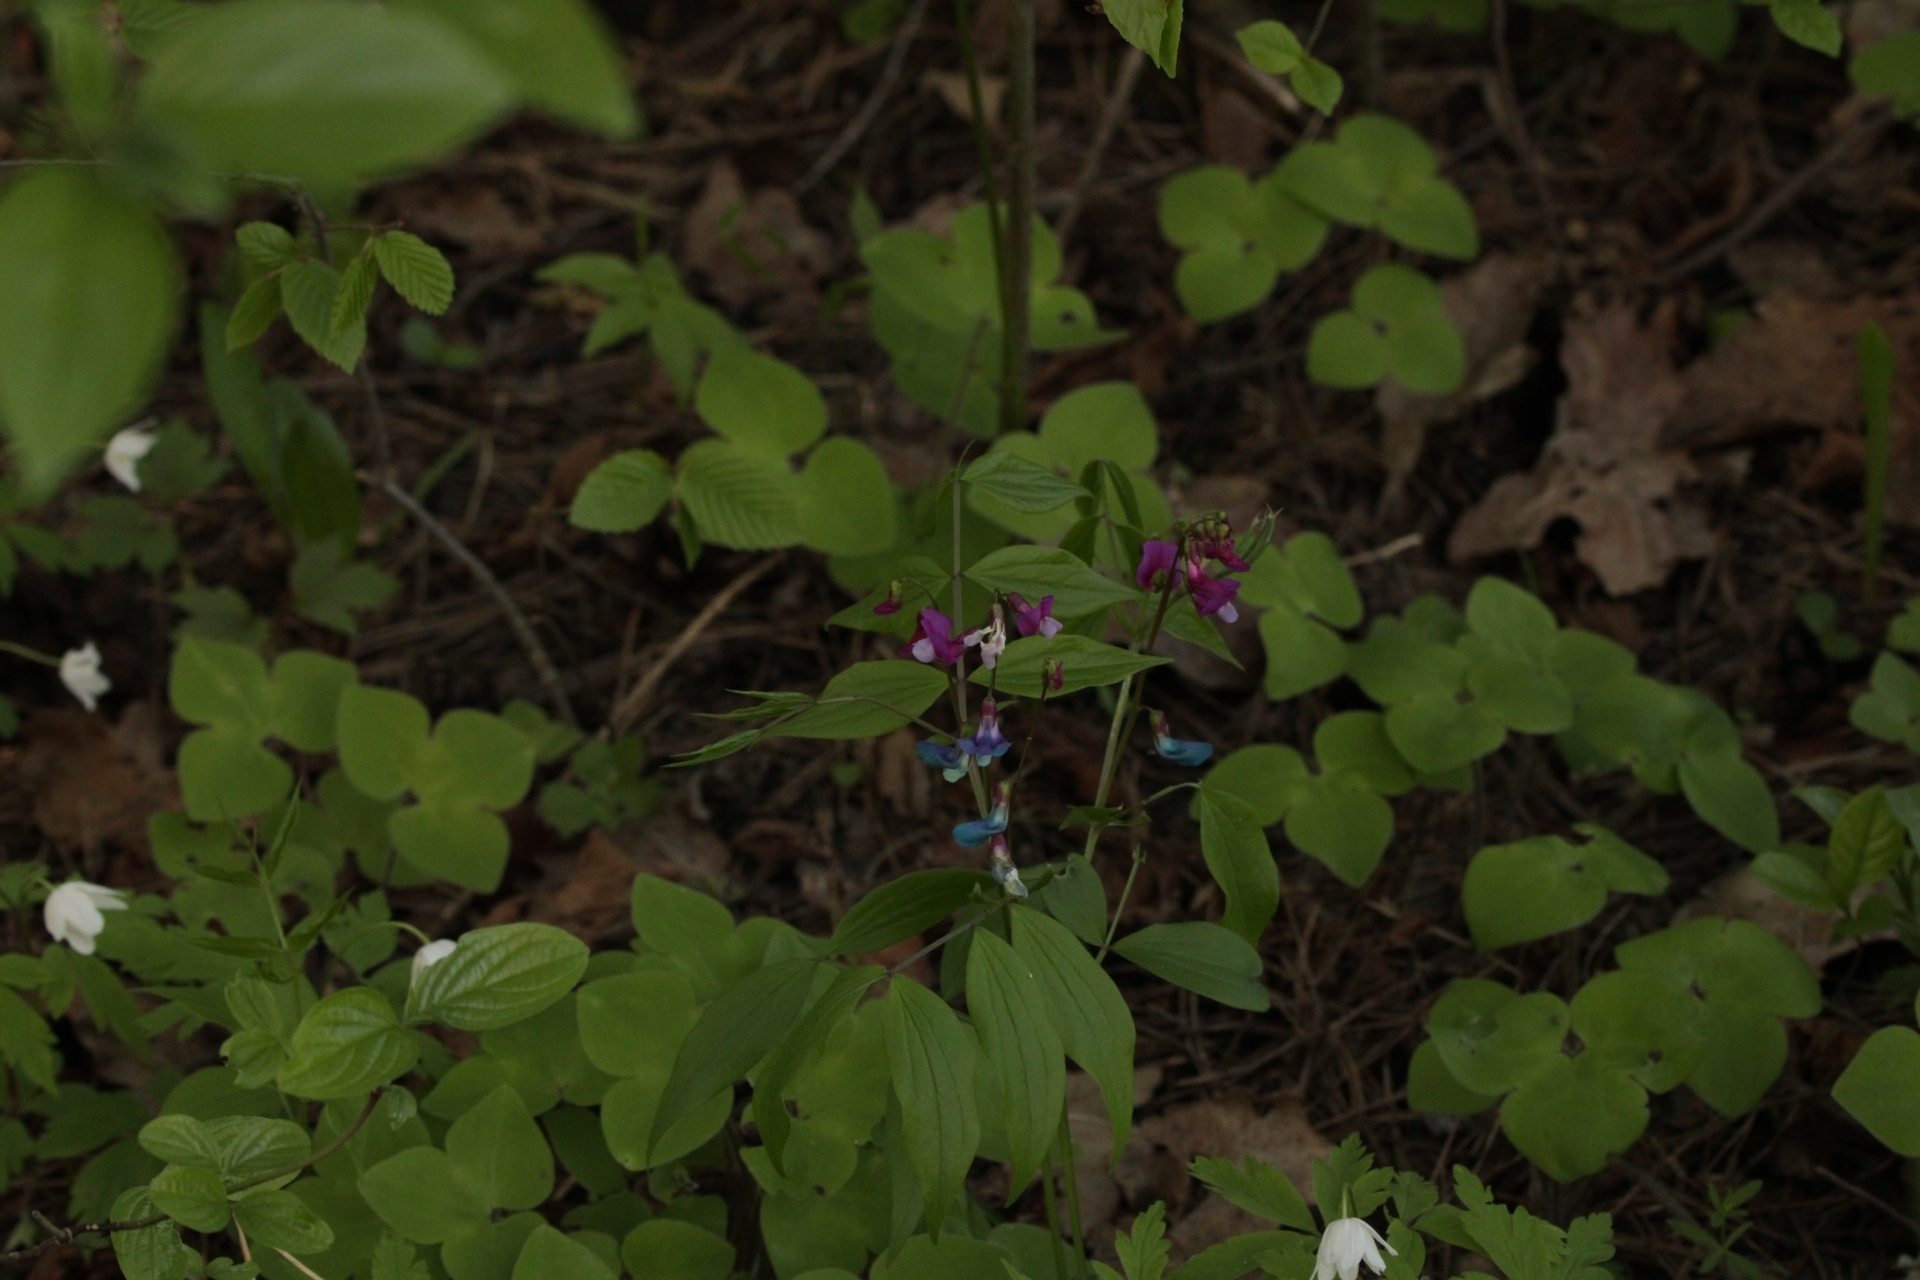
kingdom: Plantae
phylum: Tracheophyta
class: Magnoliopsida
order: Fabales
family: Fabaceae
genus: Lathyrus
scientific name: Lathyrus vernus
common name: Spring pea
